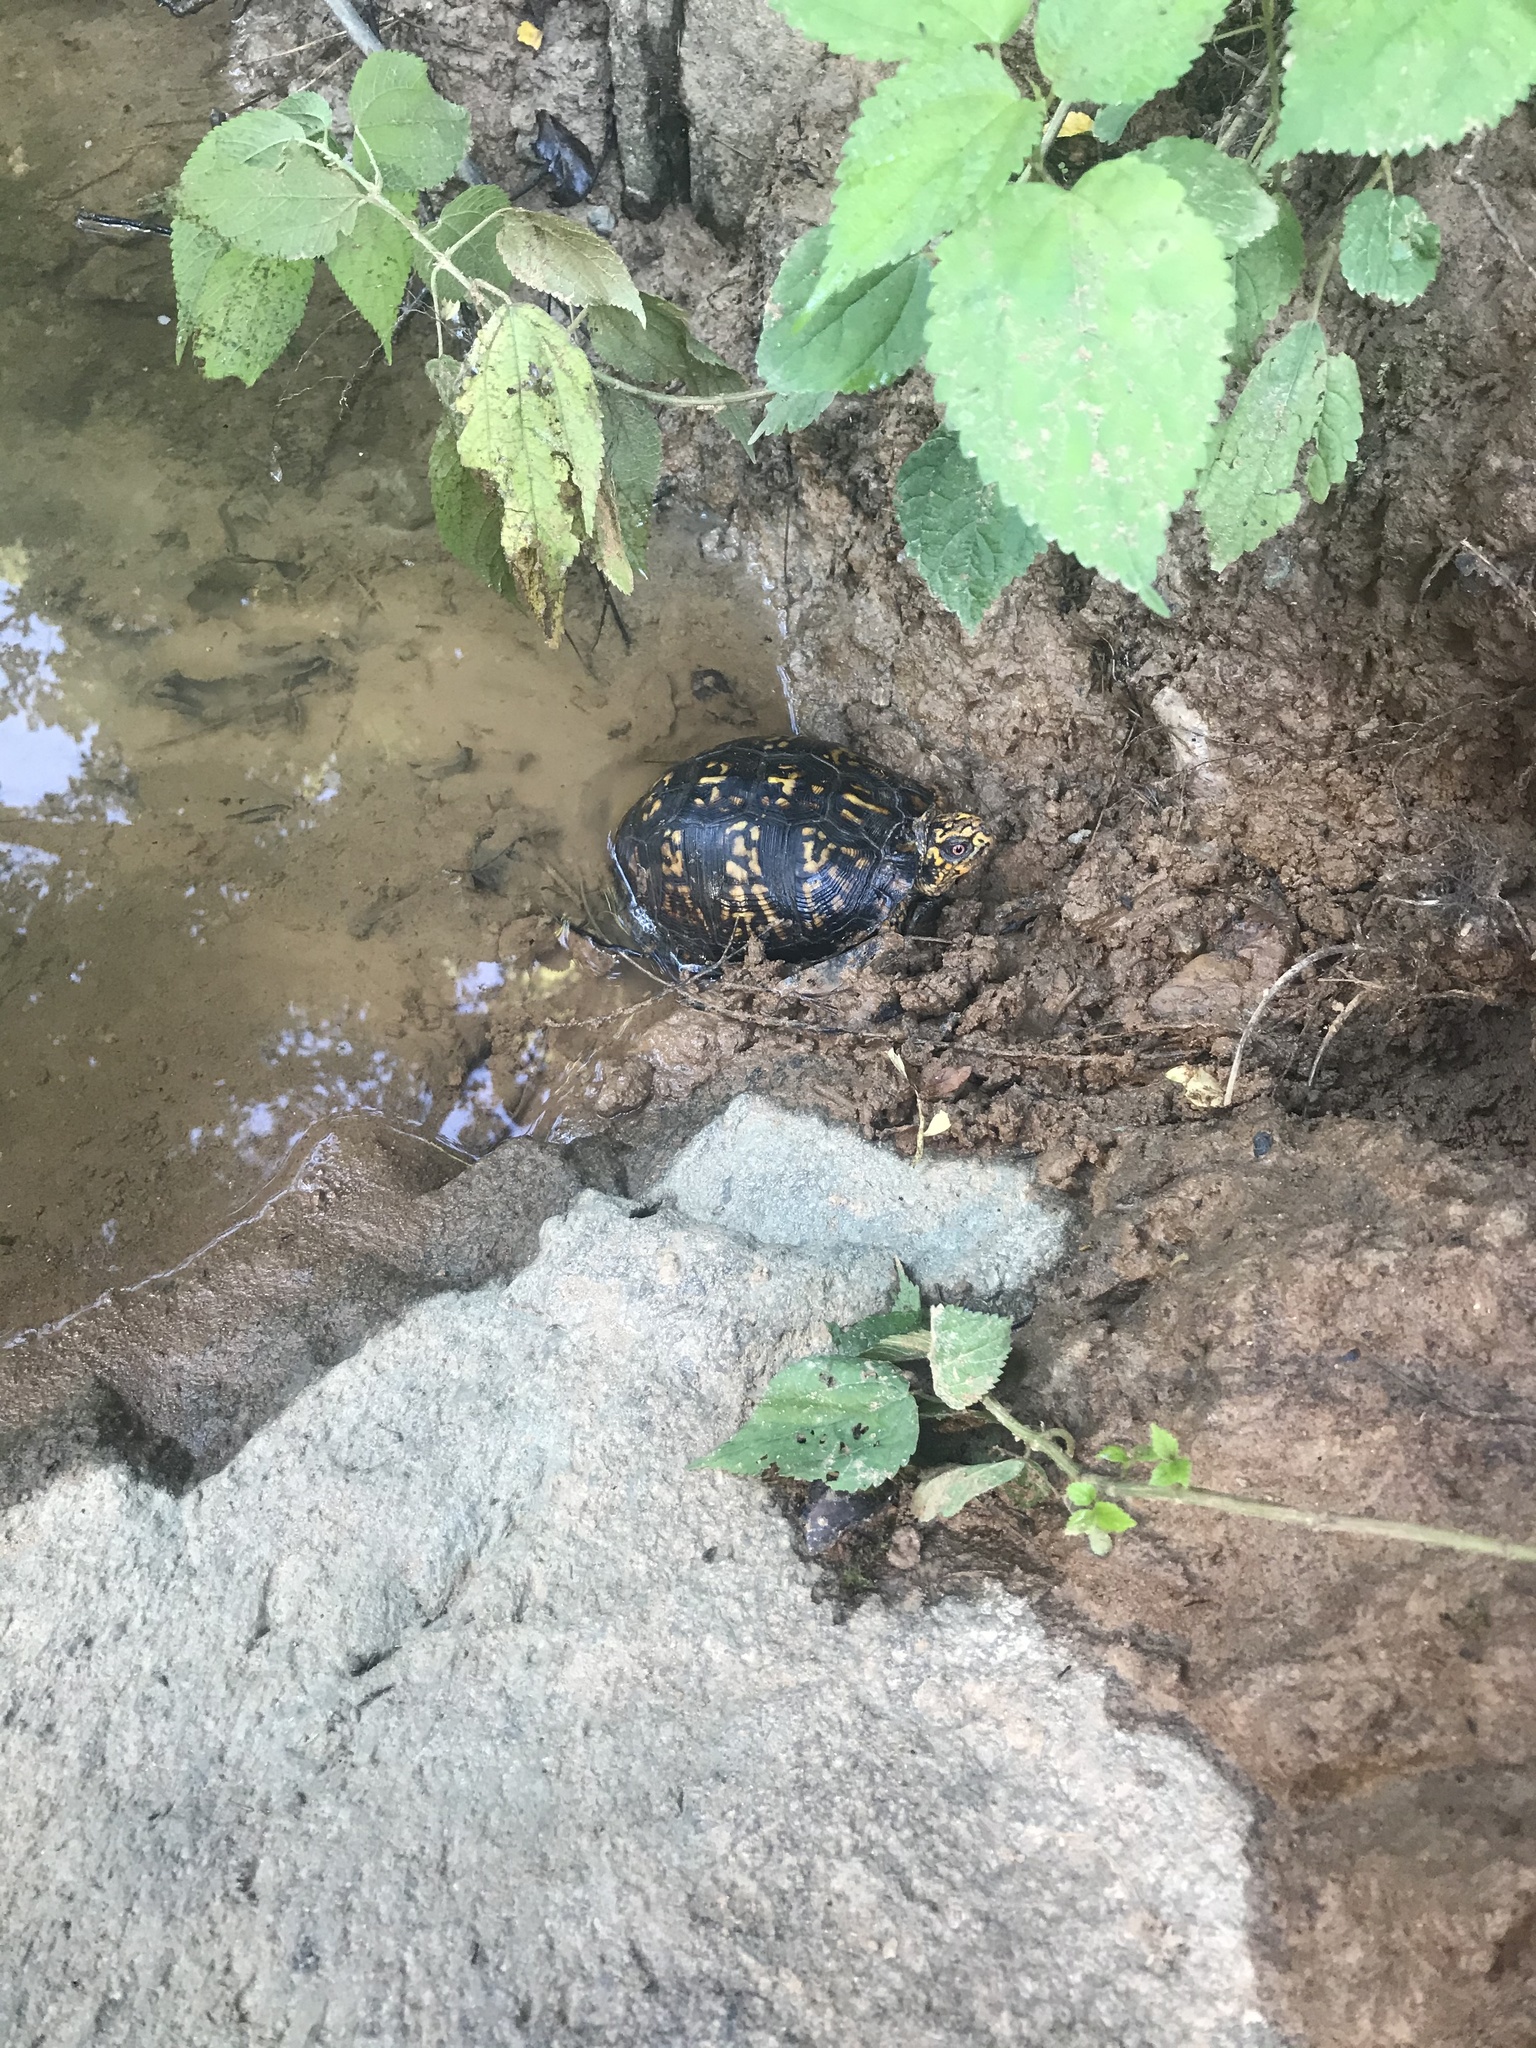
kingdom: Animalia
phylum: Chordata
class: Testudines
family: Emydidae
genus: Terrapene
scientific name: Terrapene carolina
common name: Common box turtle
